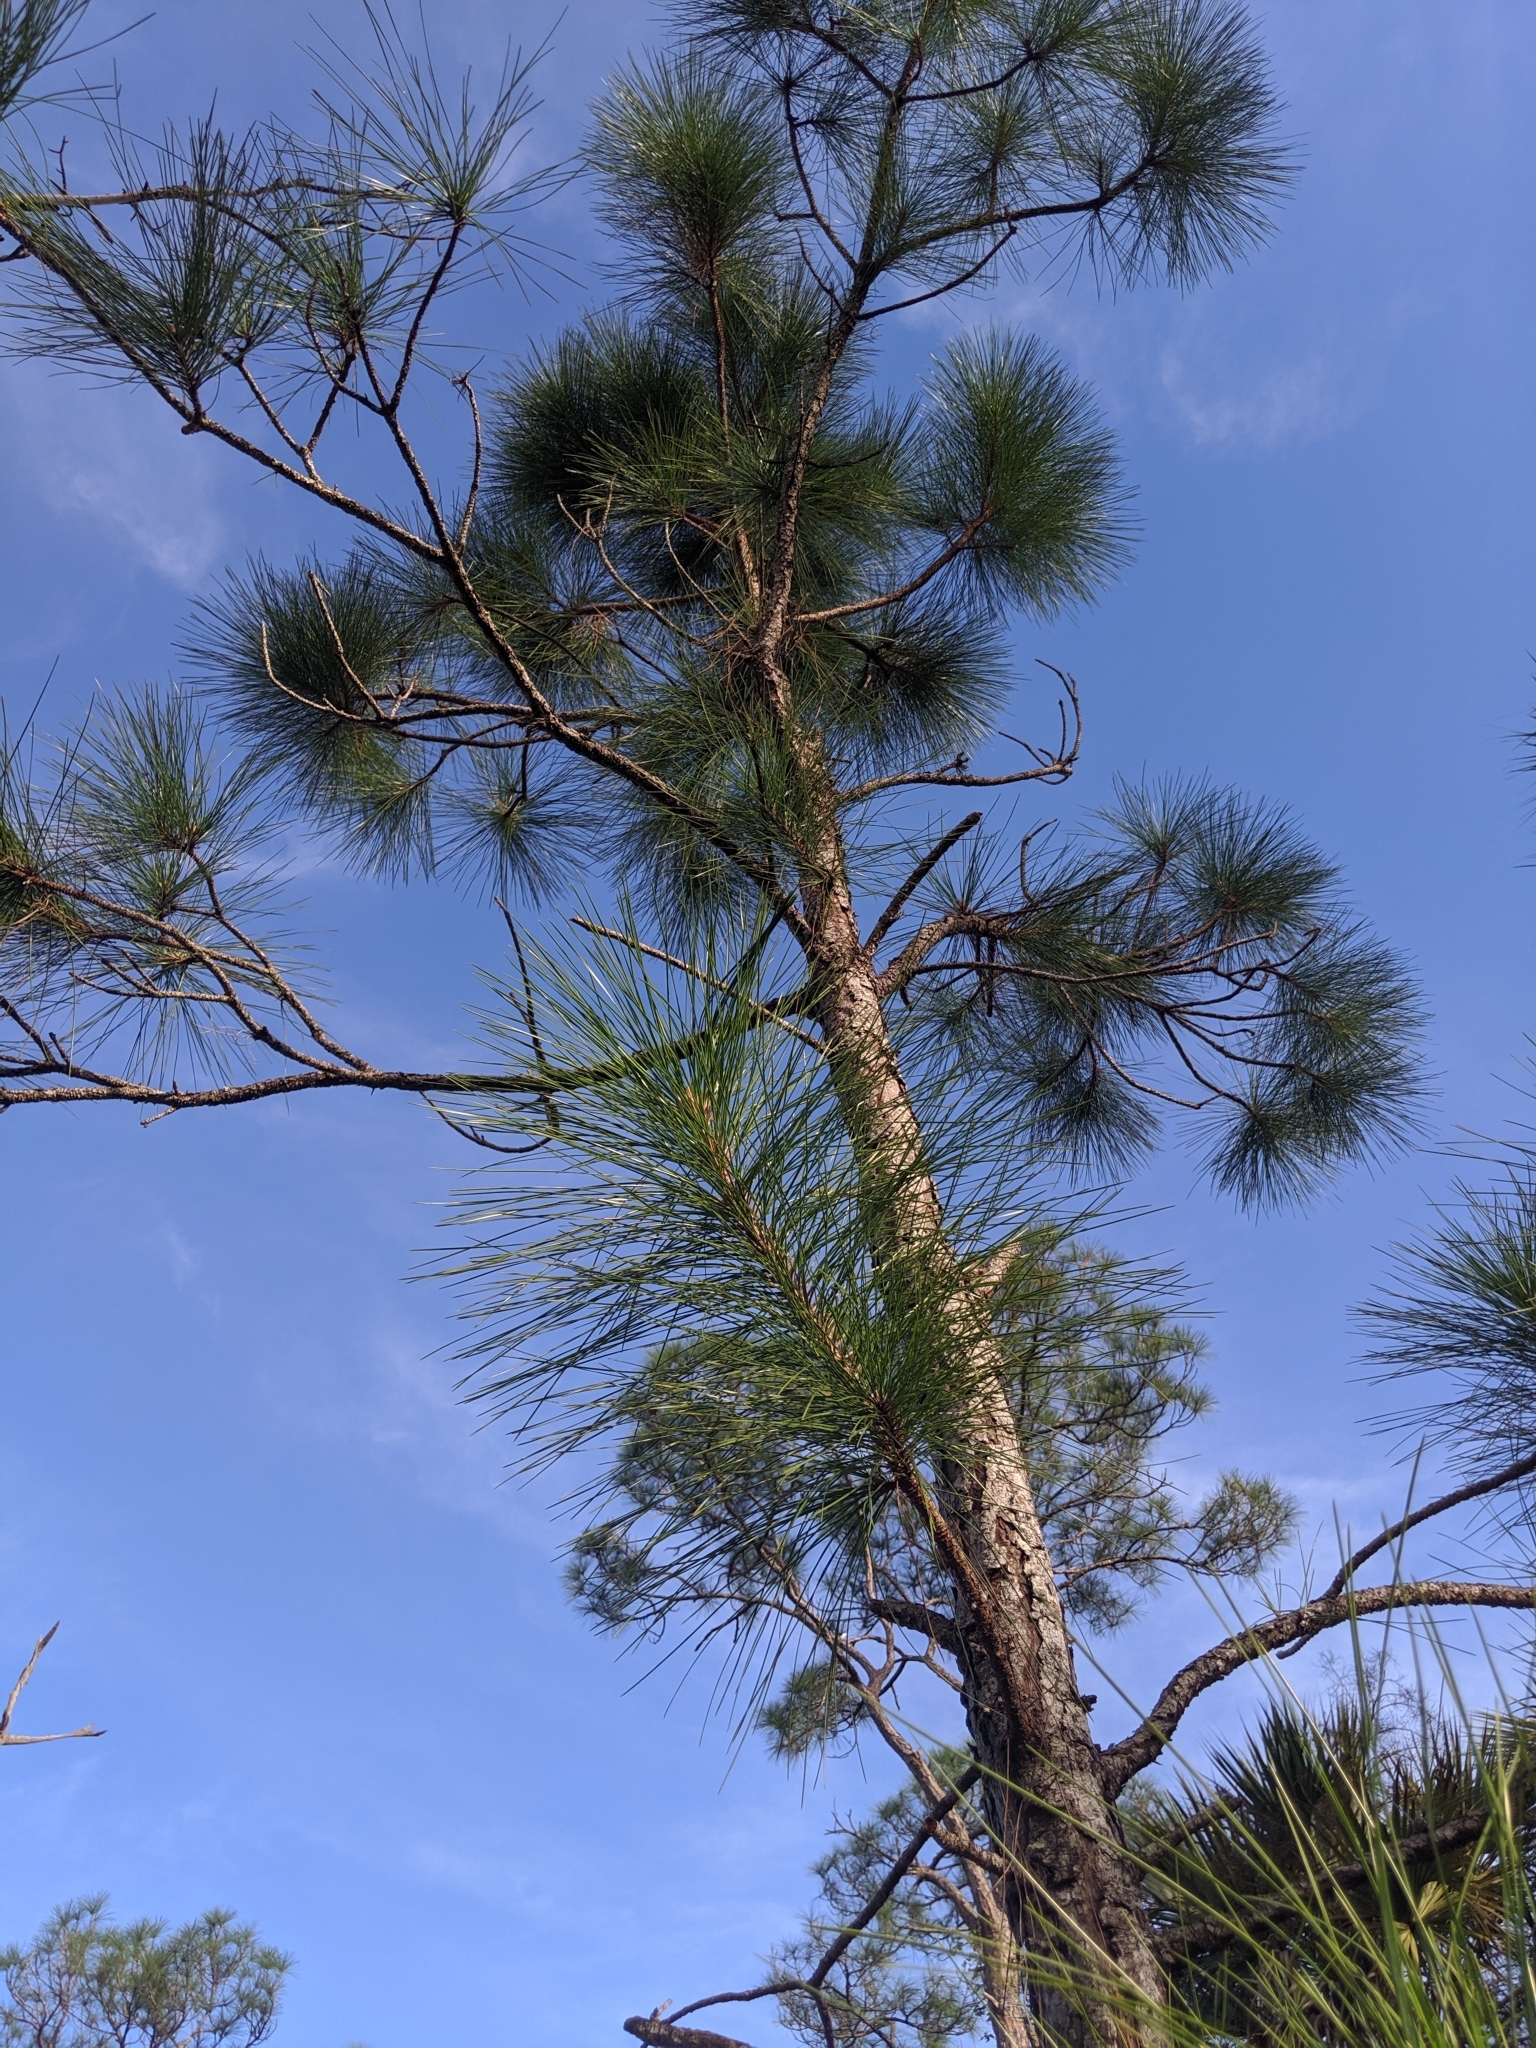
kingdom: Plantae
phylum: Tracheophyta
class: Pinopsida
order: Pinales
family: Pinaceae
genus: Pinus
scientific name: Pinus elliottii
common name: Slash pine
